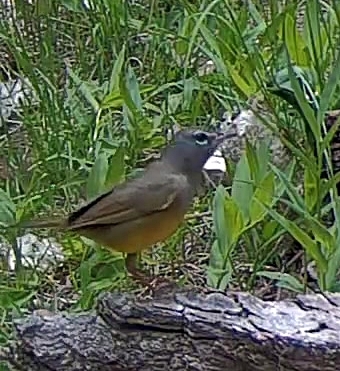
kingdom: Animalia
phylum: Chordata
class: Aves
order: Passeriformes
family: Parulidae
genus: Geothlypis
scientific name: Geothlypis tolmiei
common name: Macgillivray's warbler
